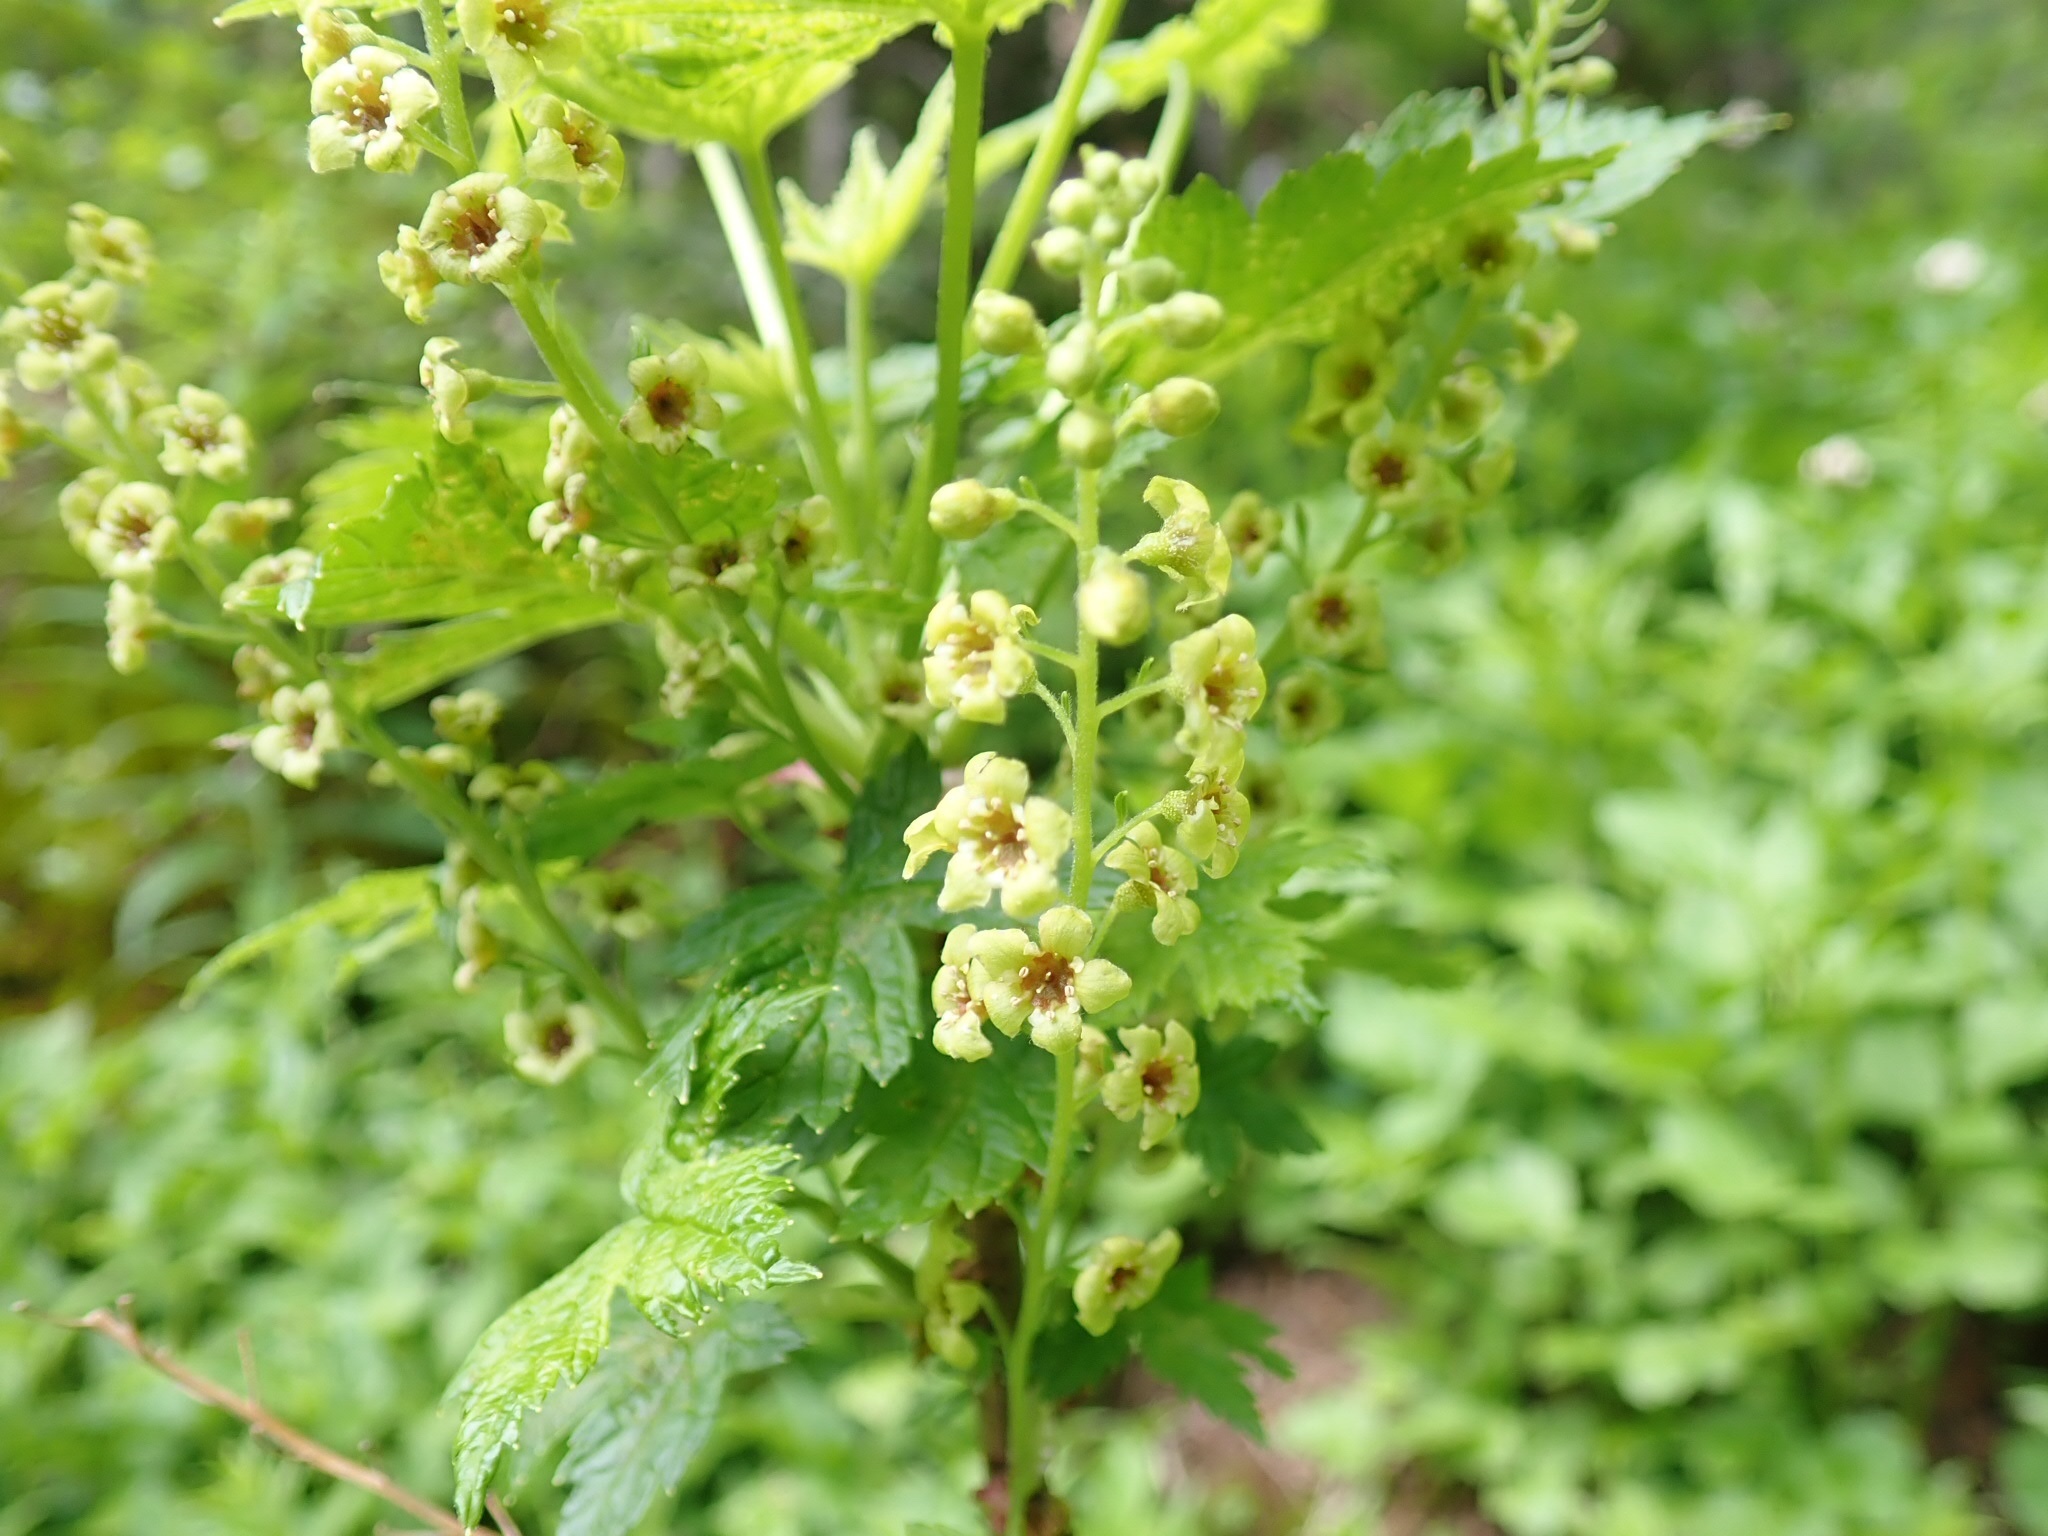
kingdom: Plantae
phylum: Tracheophyta
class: Magnoliopsida
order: Saxifragales
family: Grossulariaceae
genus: Ribes
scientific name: Ribes bracteosum
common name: California black currant
